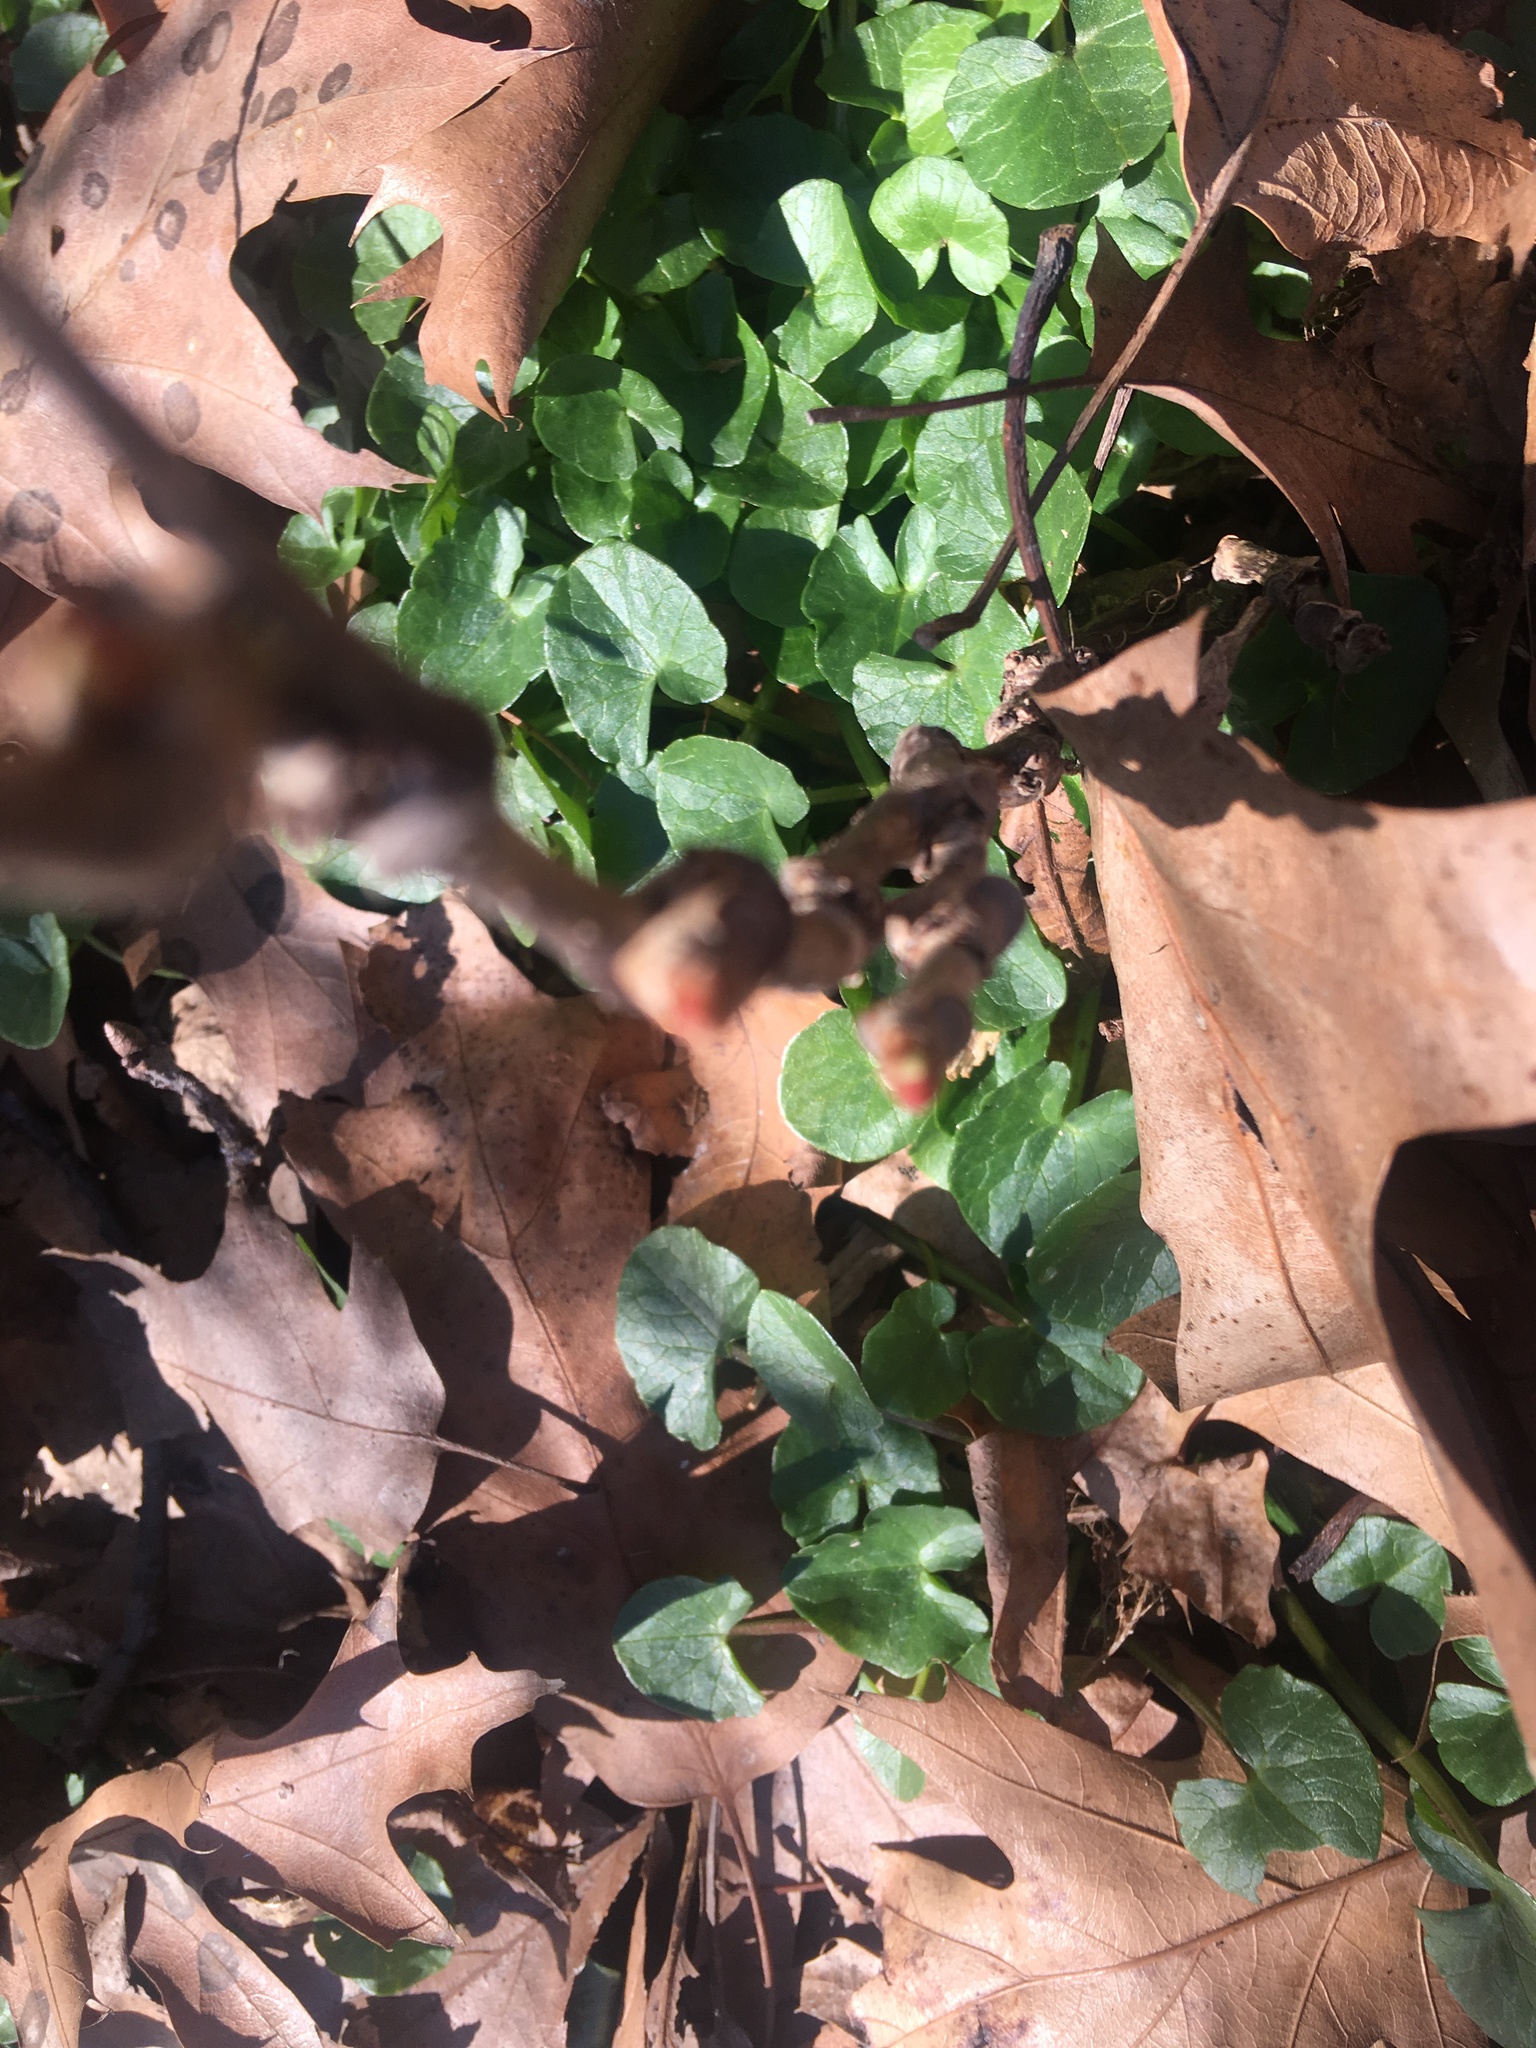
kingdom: Plantae
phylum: Tracheophyta
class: Magnoliopsida
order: Ranunculales
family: Ranunculaceae
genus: Ficaria
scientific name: Ficaria verna
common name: Lesser celandine
